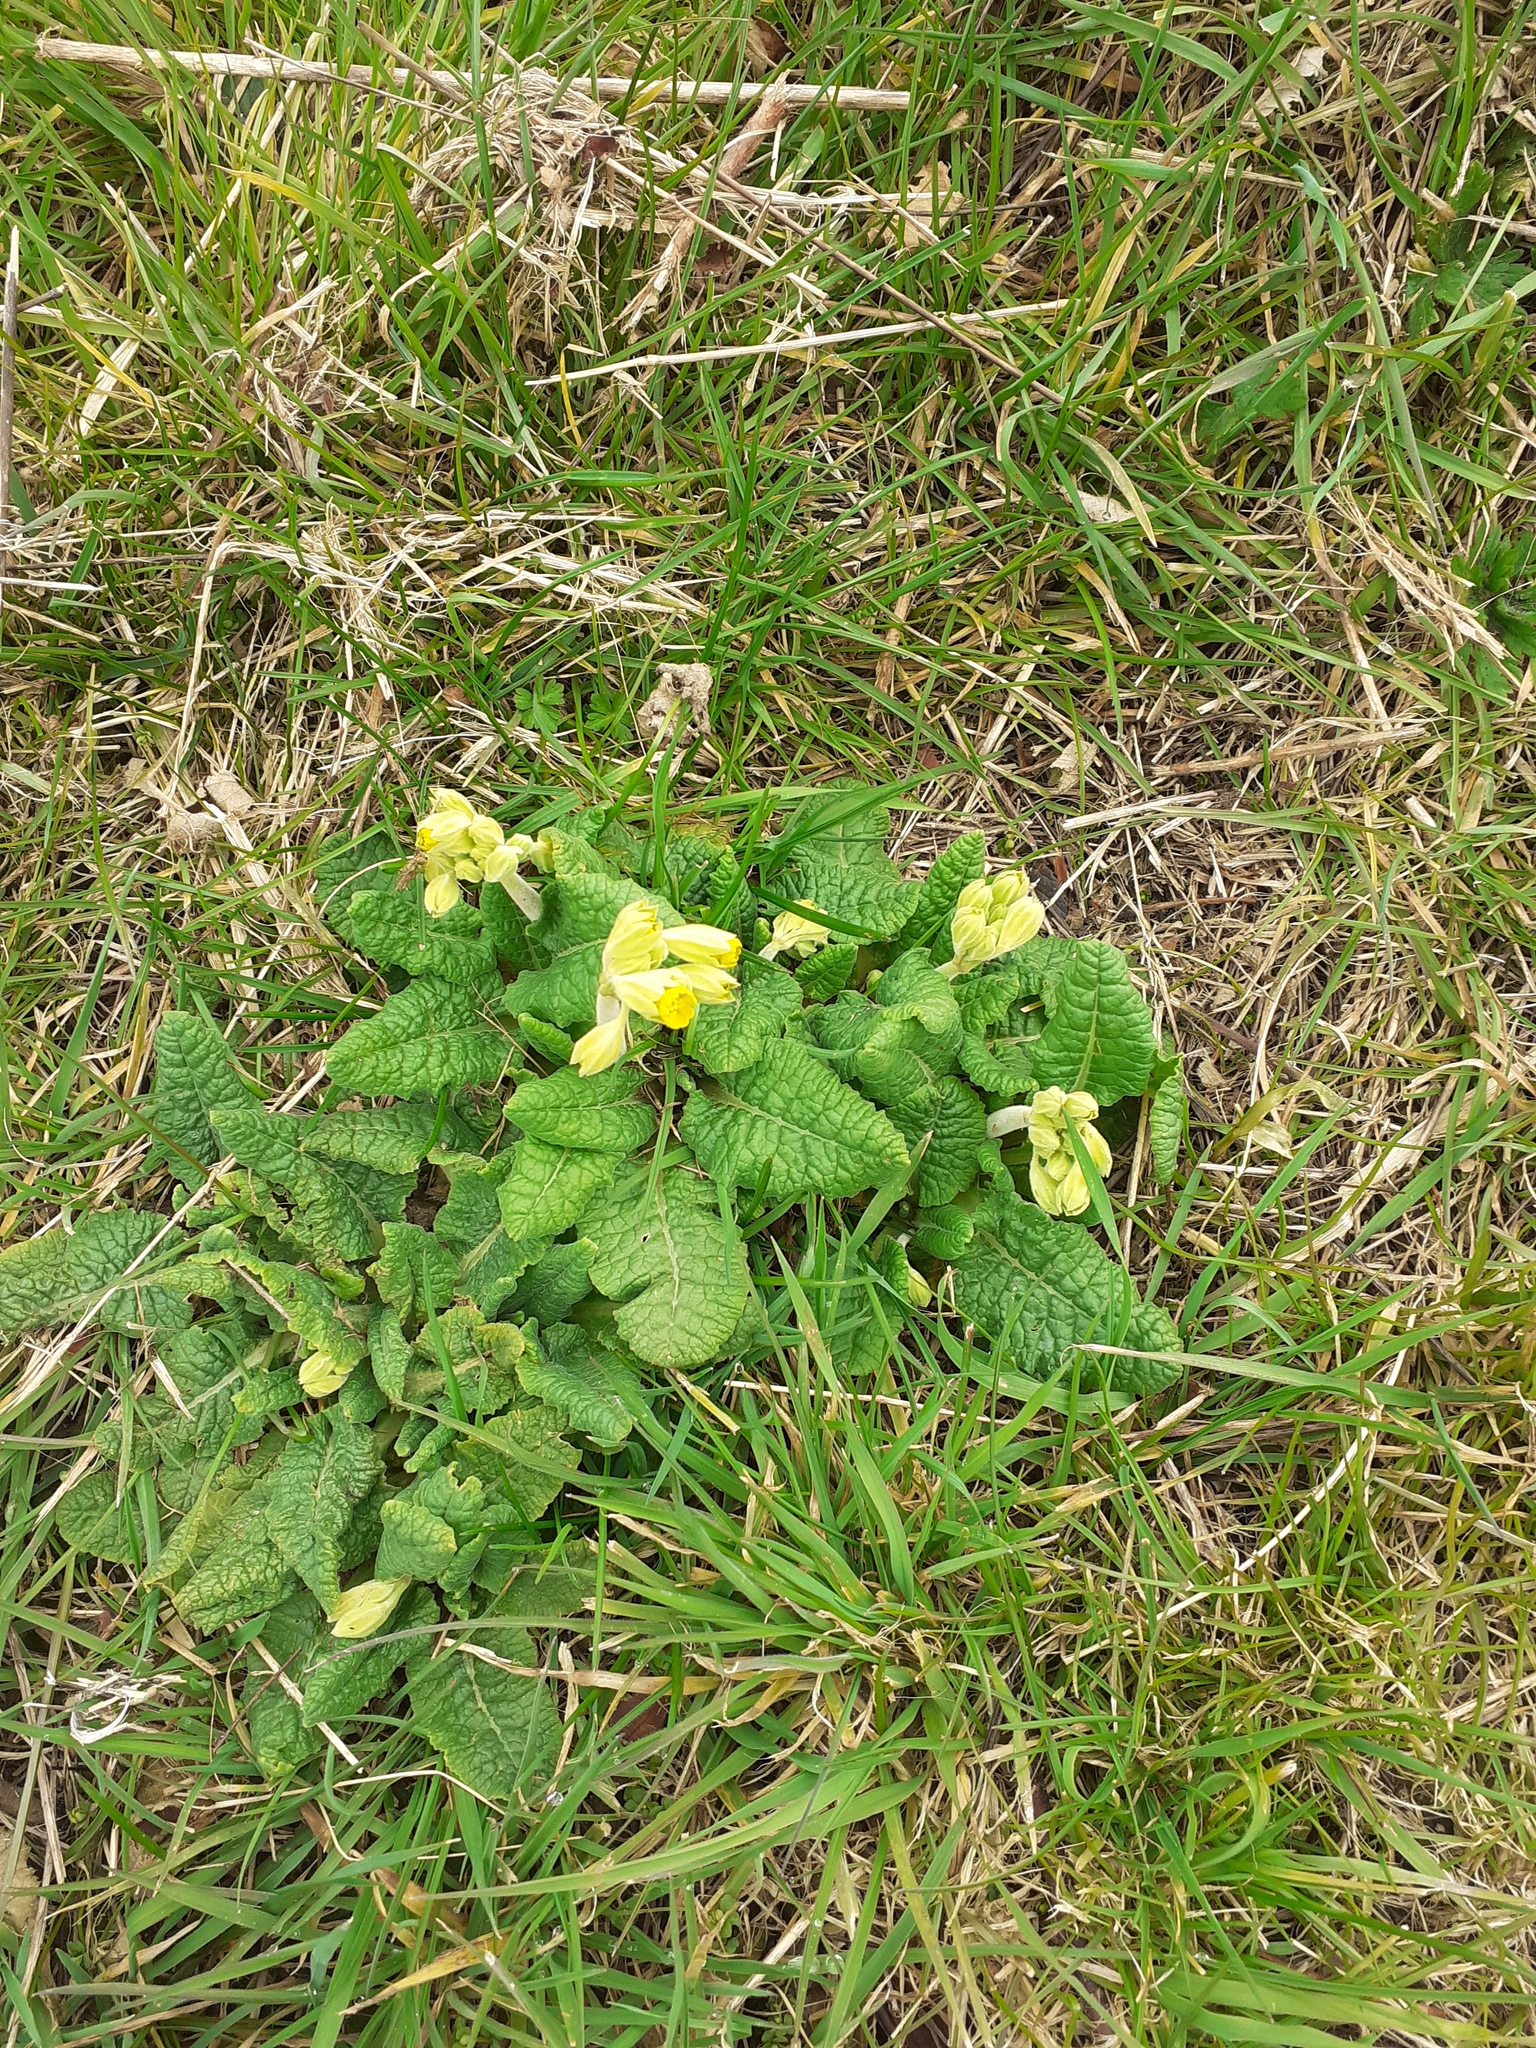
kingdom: Plantae
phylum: Tracheophyta
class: Magnoliopsida
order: Ericales
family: Primulaceae
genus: Primula
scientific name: Primula veris
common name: Cowslip
